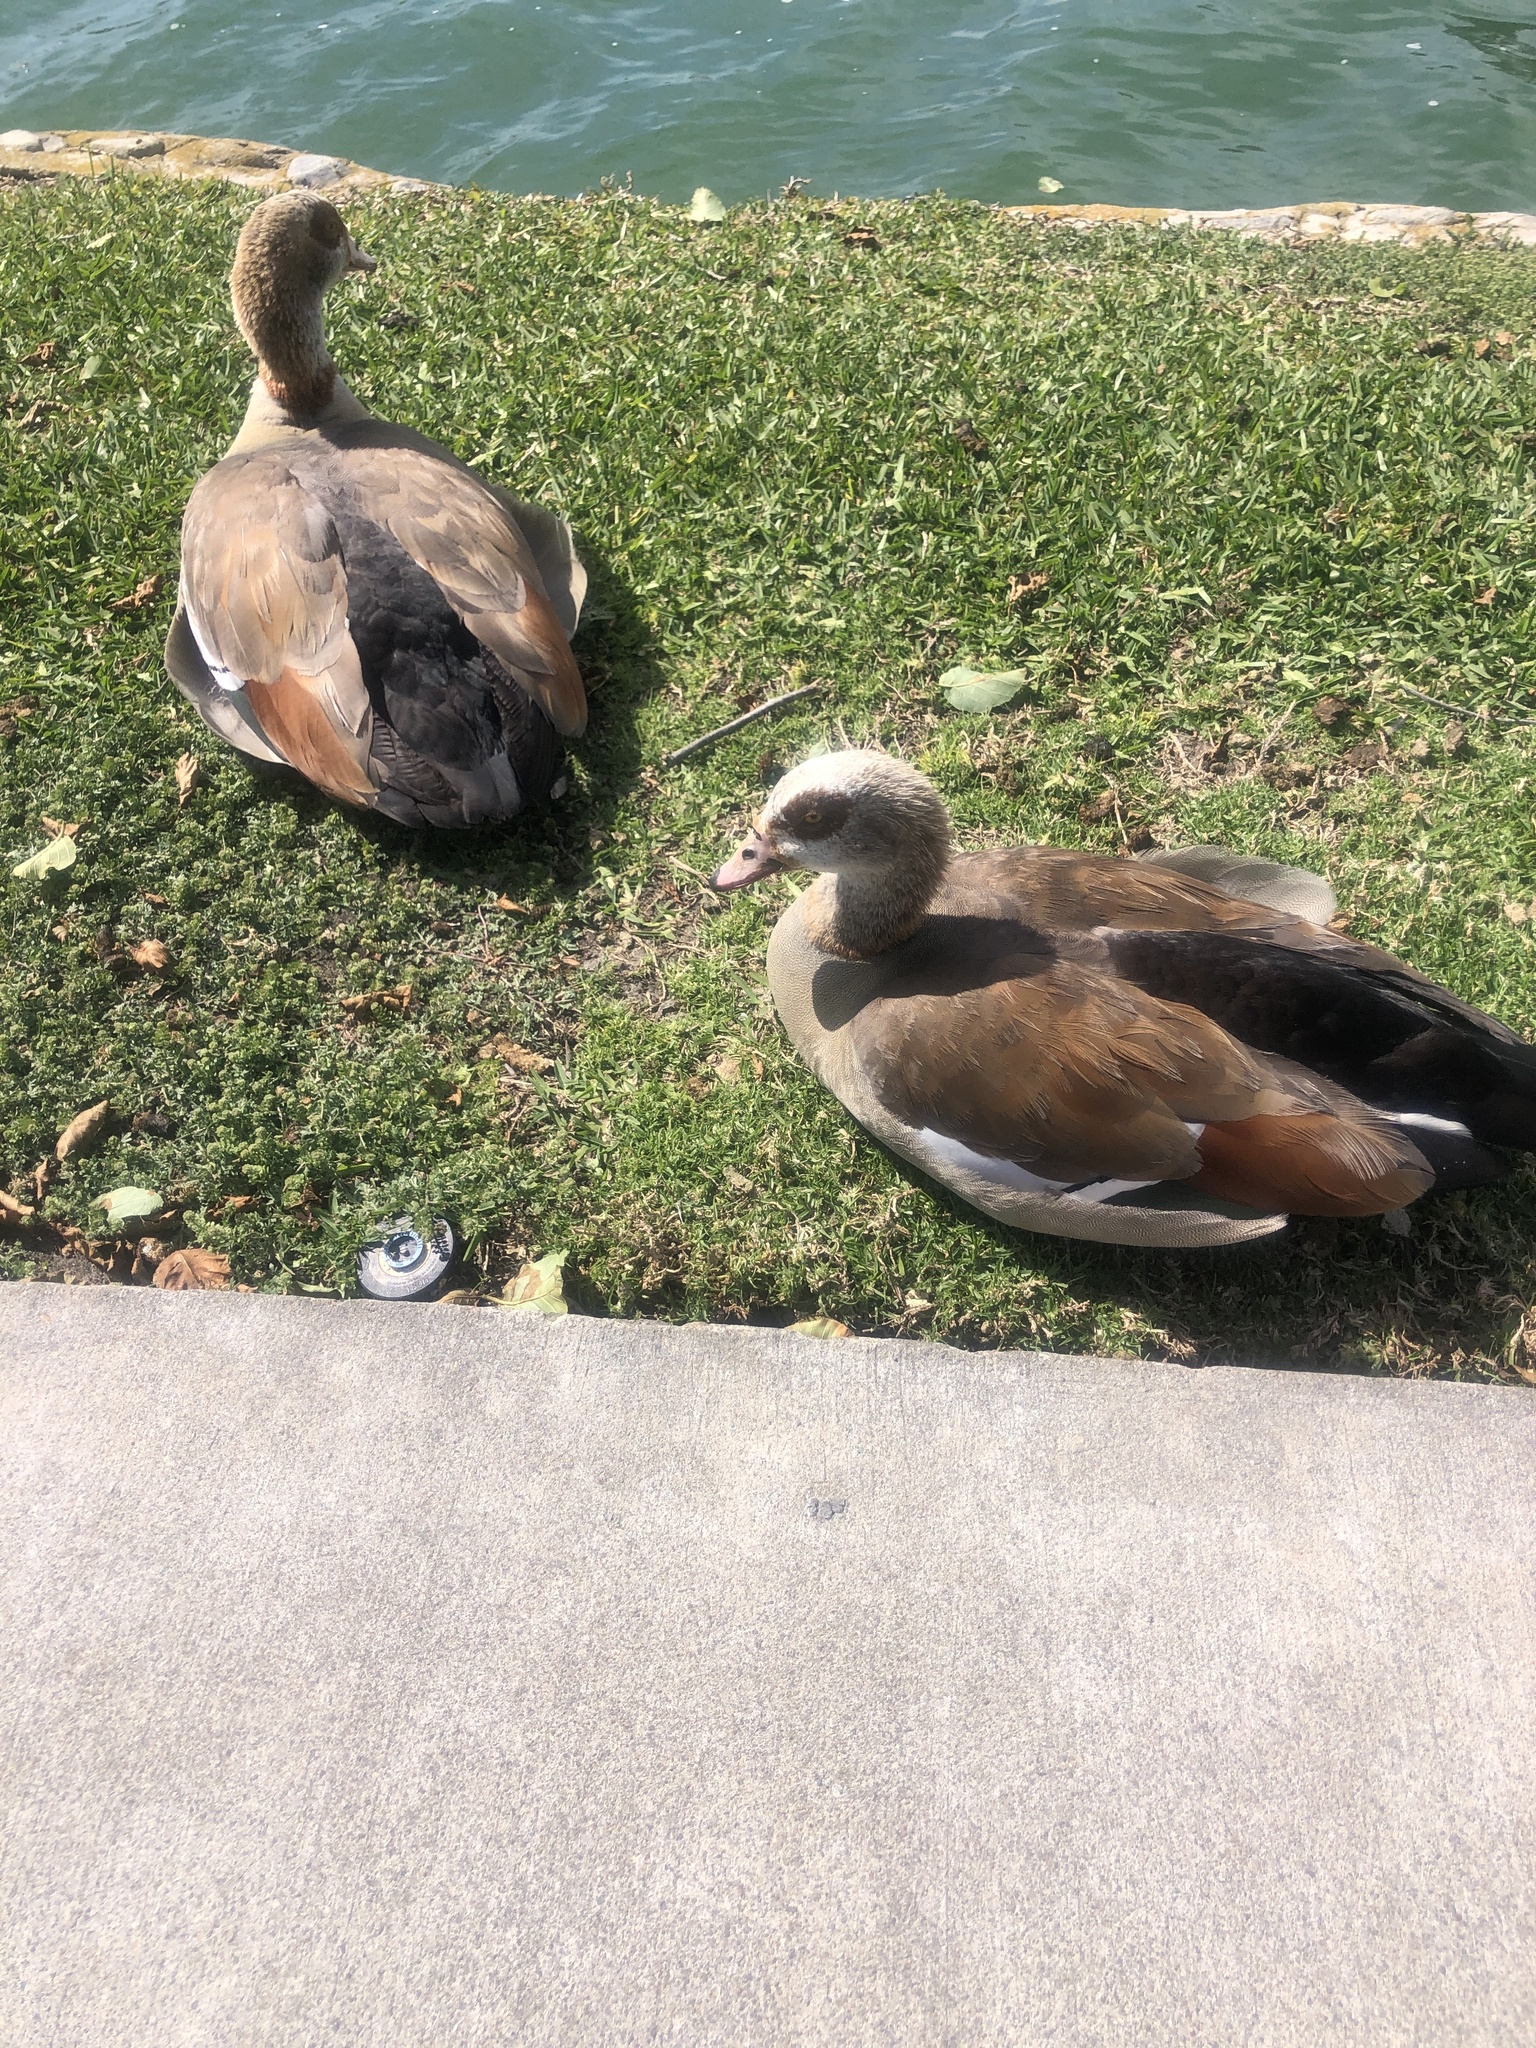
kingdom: Animalia
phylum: Chordata
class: Aves
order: Anseriformes
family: Anatidae
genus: Alopochen
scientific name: Alopochen aegyptiaca
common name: Egyptian goose
